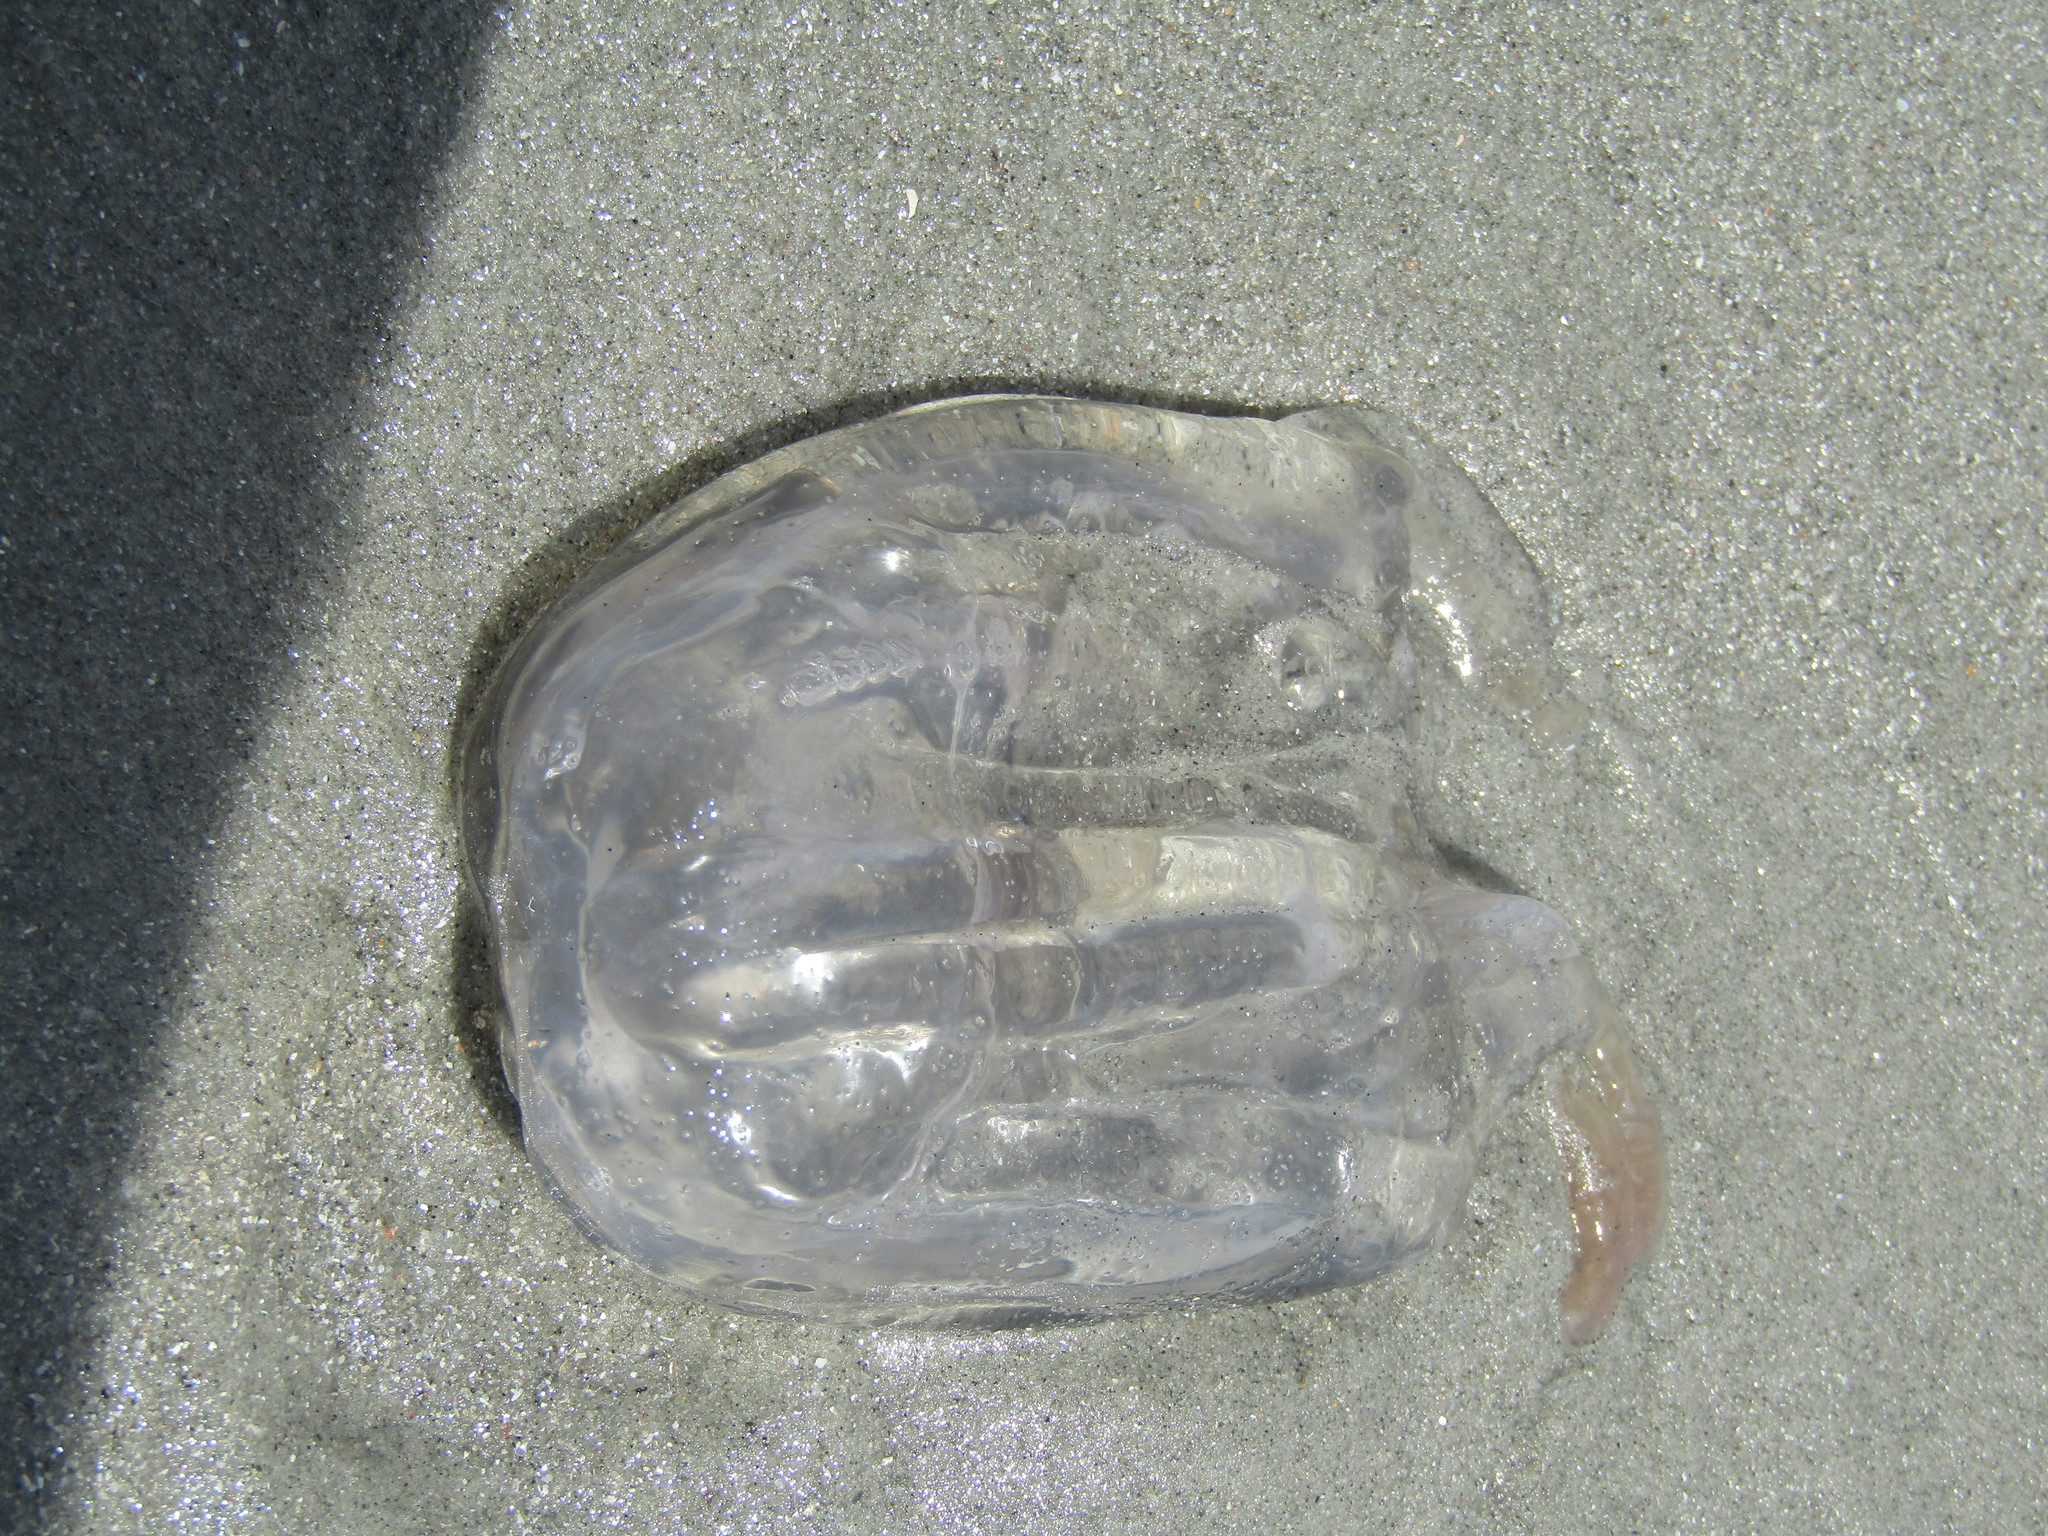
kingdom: Animalia
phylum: Cnidaria
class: Cubozoa
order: Chirodropida
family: Chiropsalmidae
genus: Chiropsalmus
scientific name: Chiropsalmus quadrumanus
